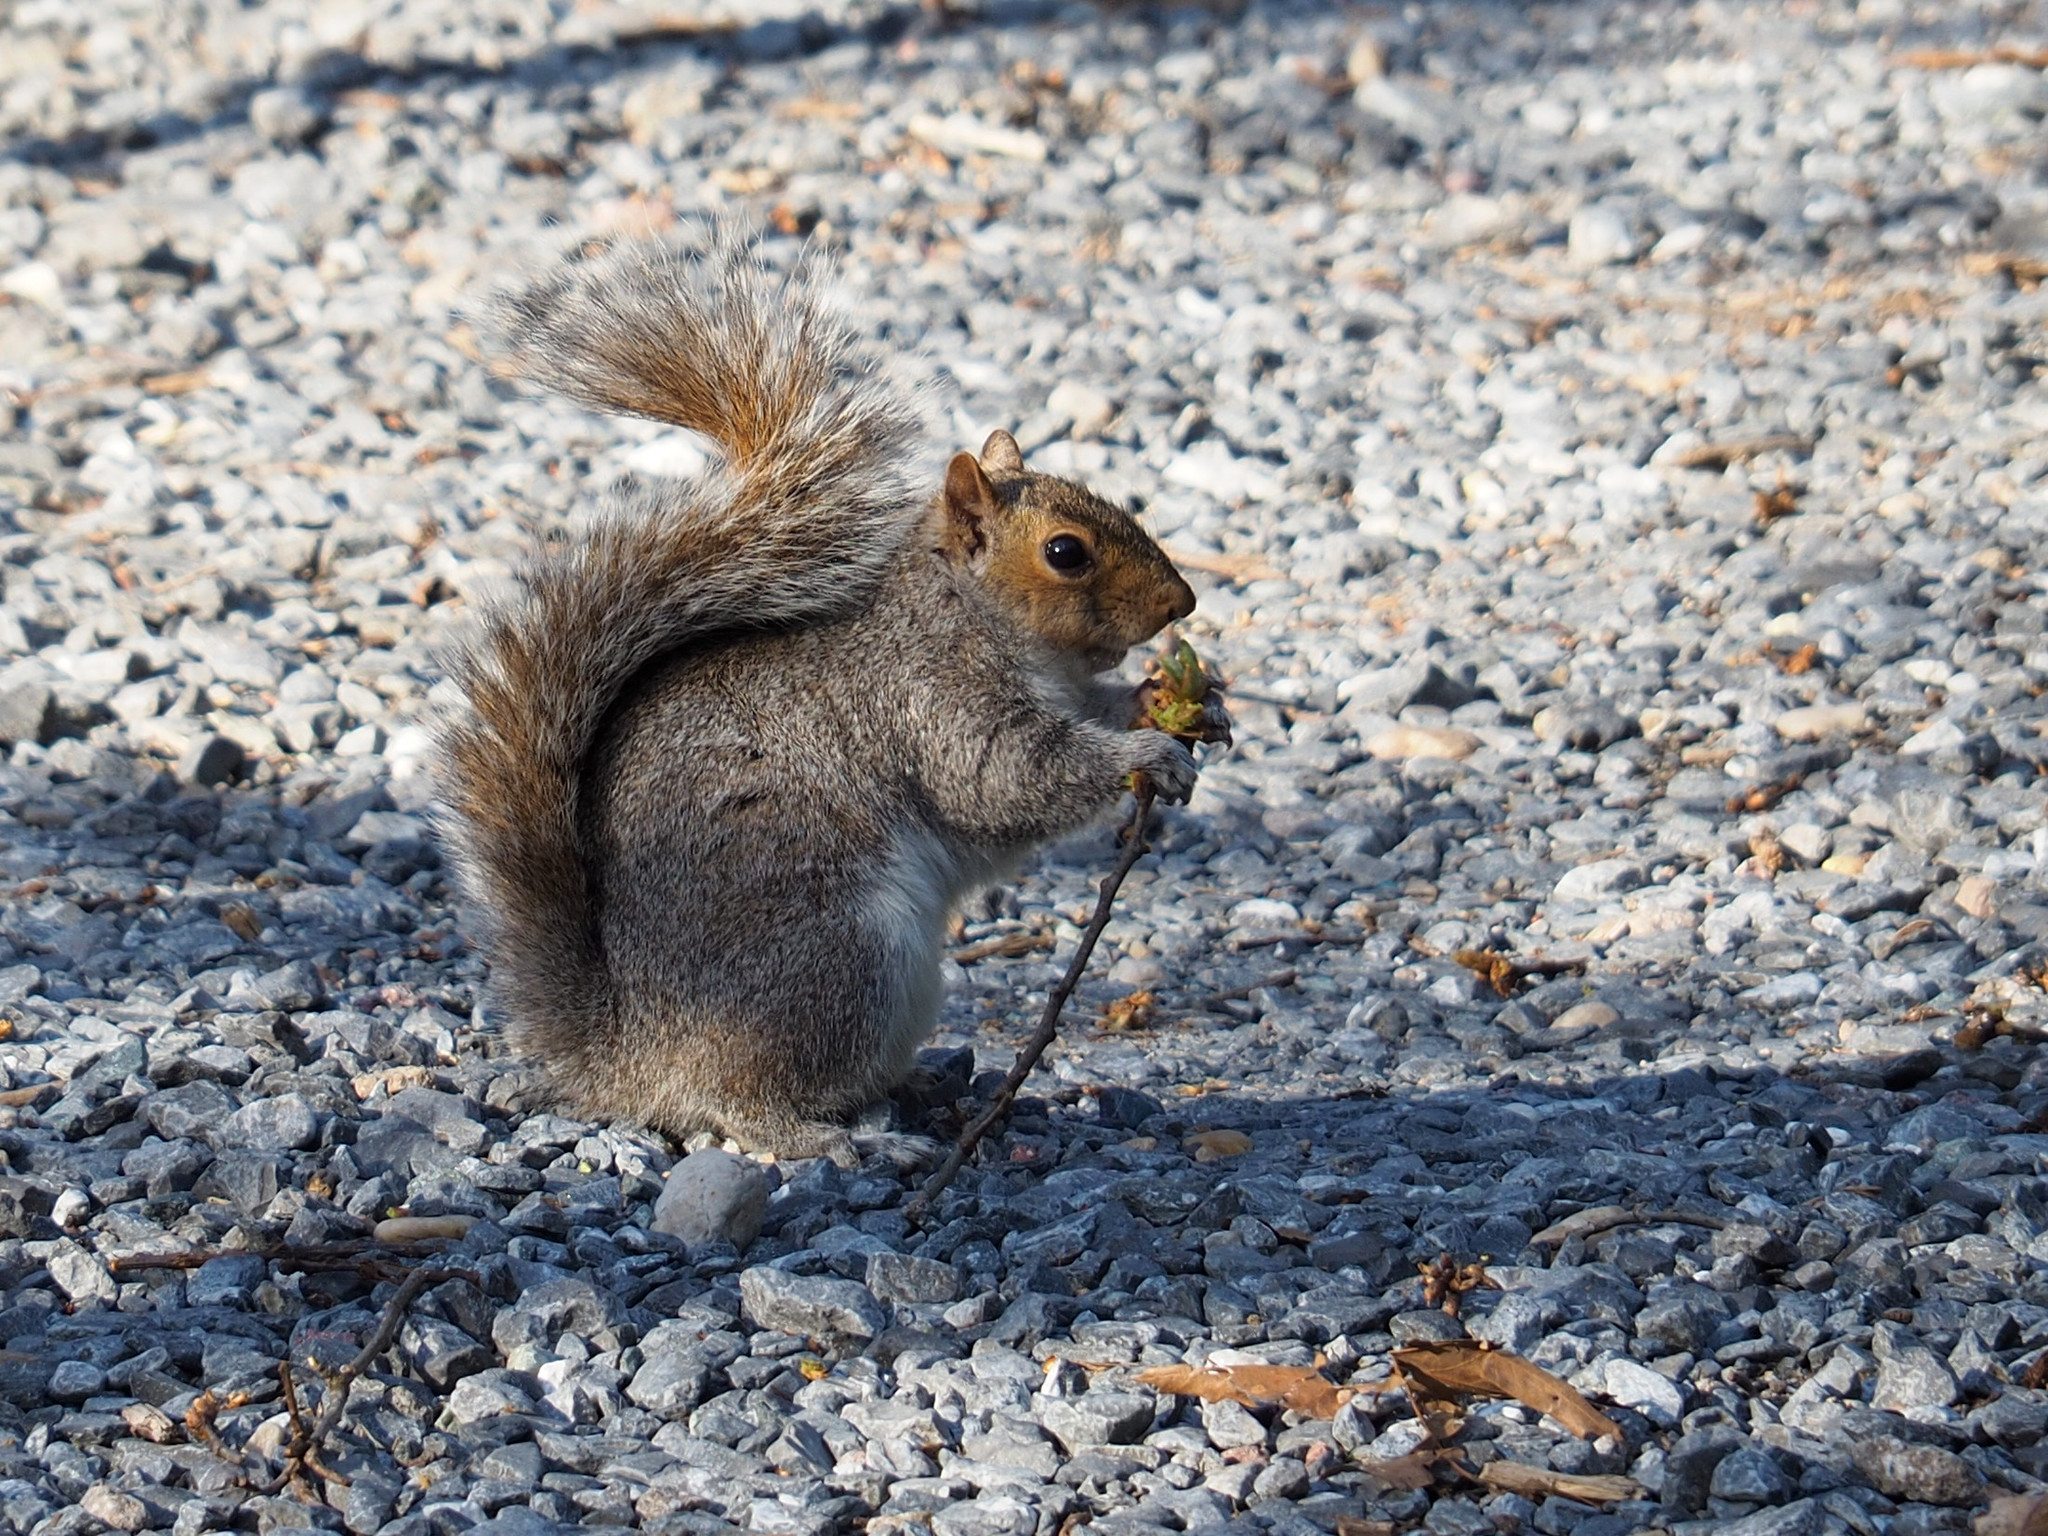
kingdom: Animalia
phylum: Chordata
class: Mammalia
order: Rodentia
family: Sciuridae
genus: Sciurus
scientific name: Sciurus carolinensis
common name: Eastern gray squirrel
